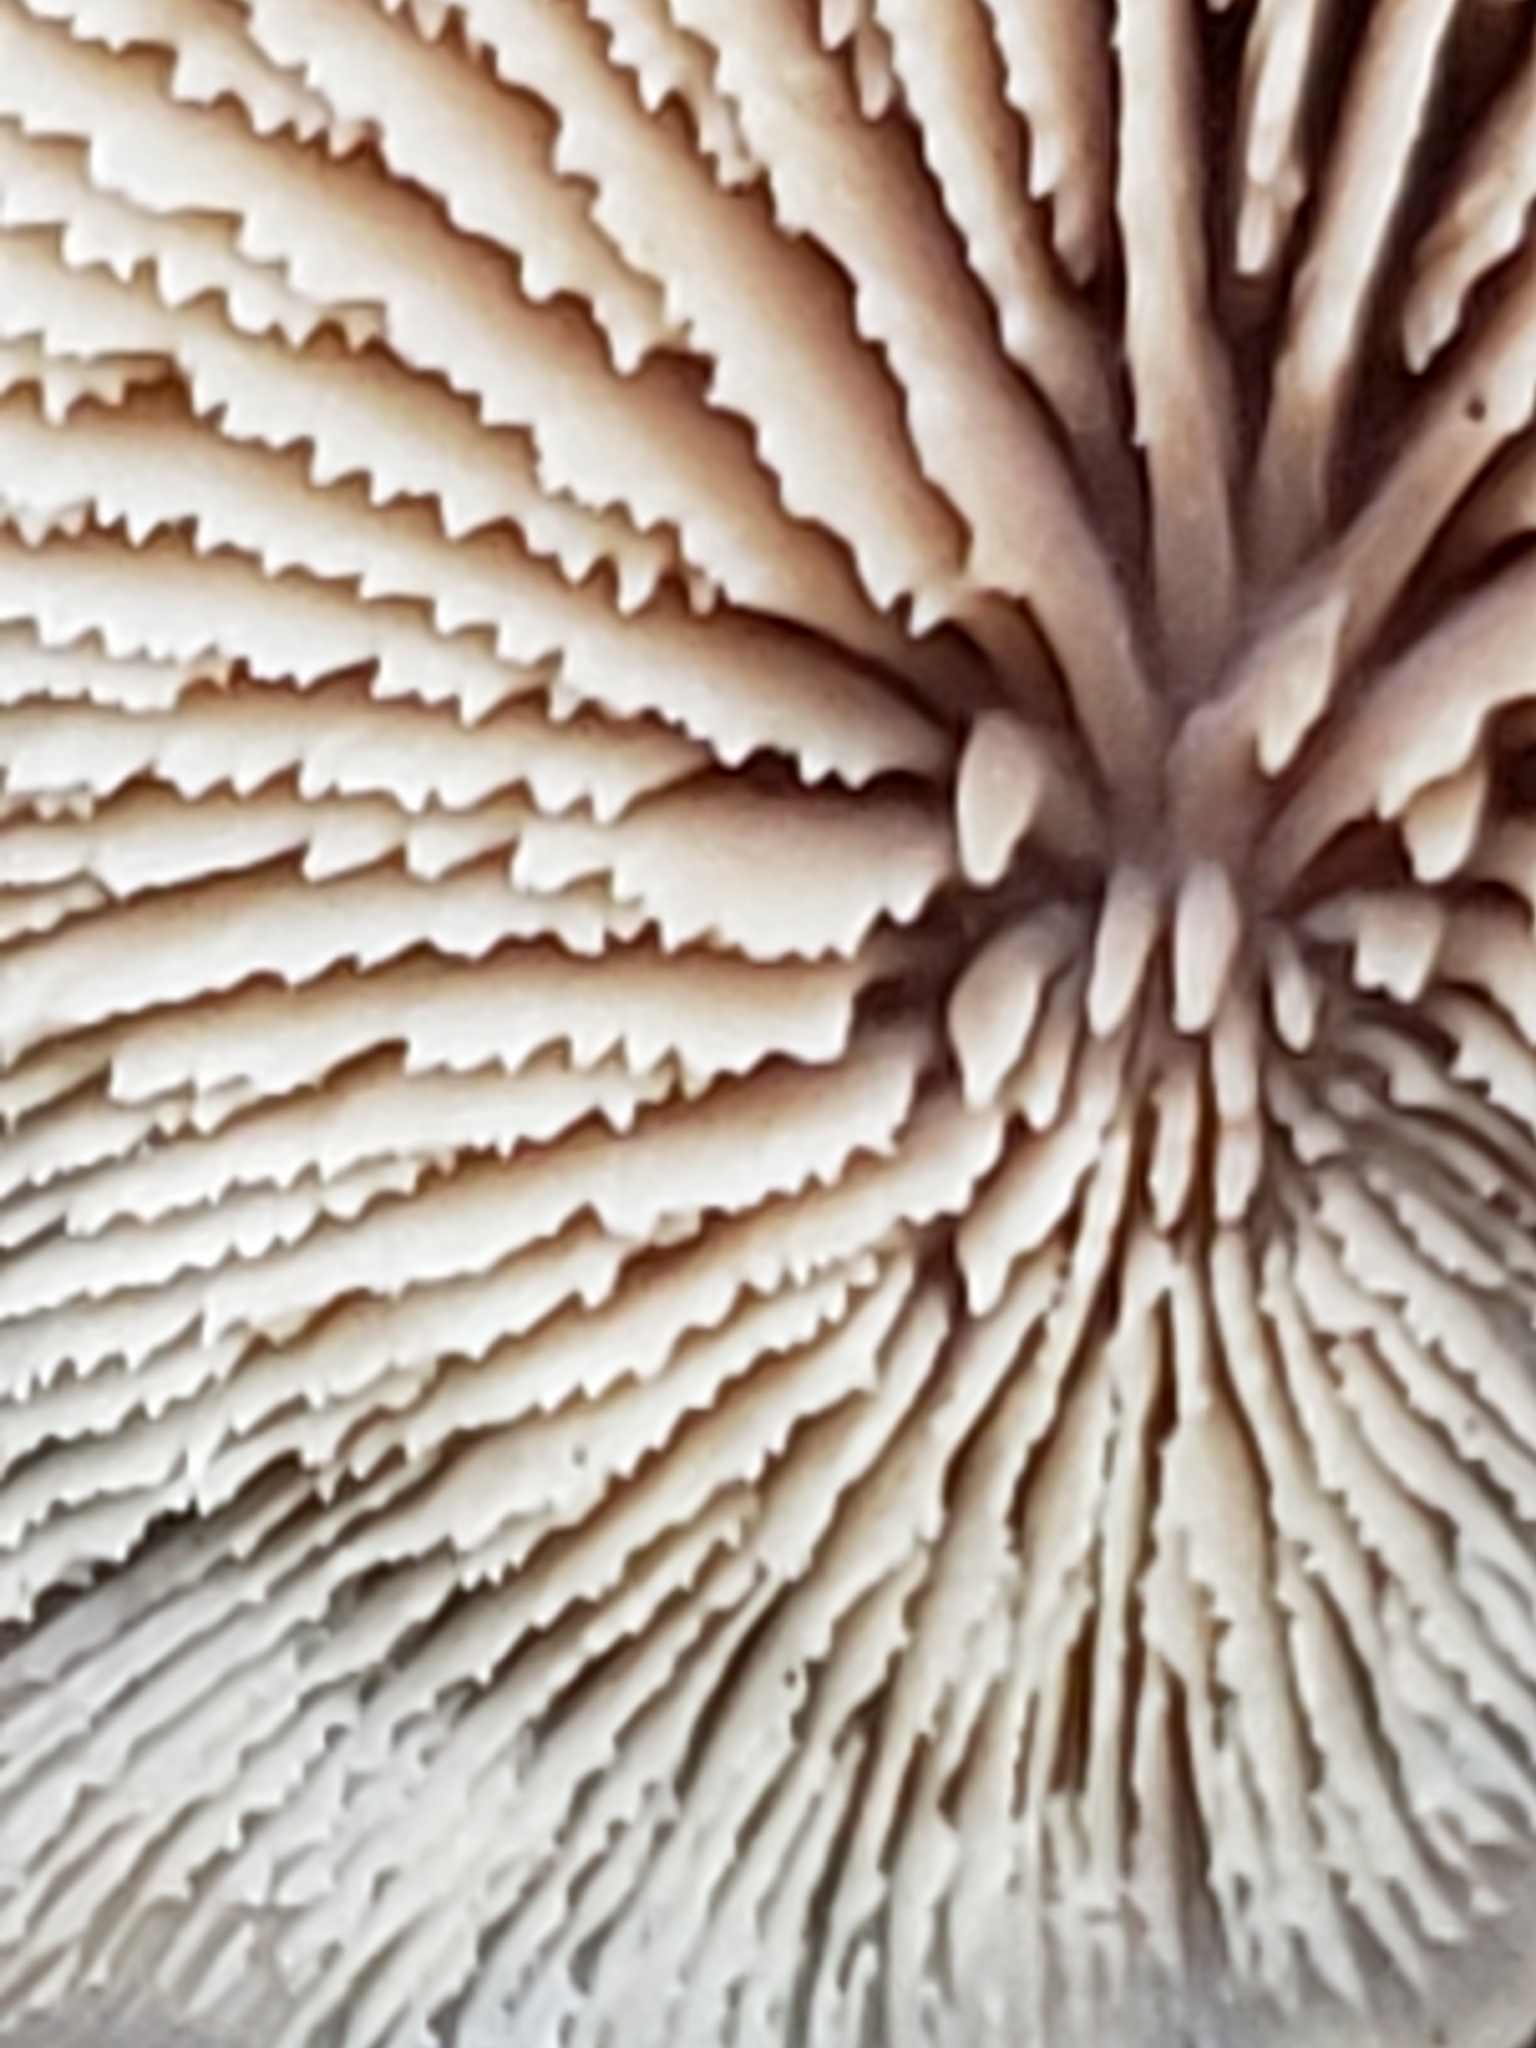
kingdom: Fungi
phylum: Basidiomycota
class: Agaricomycetes
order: Russulales
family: Auriscalpiaceae
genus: Lentinellus
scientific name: Lentinellus ursinus
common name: Bear lentinus
